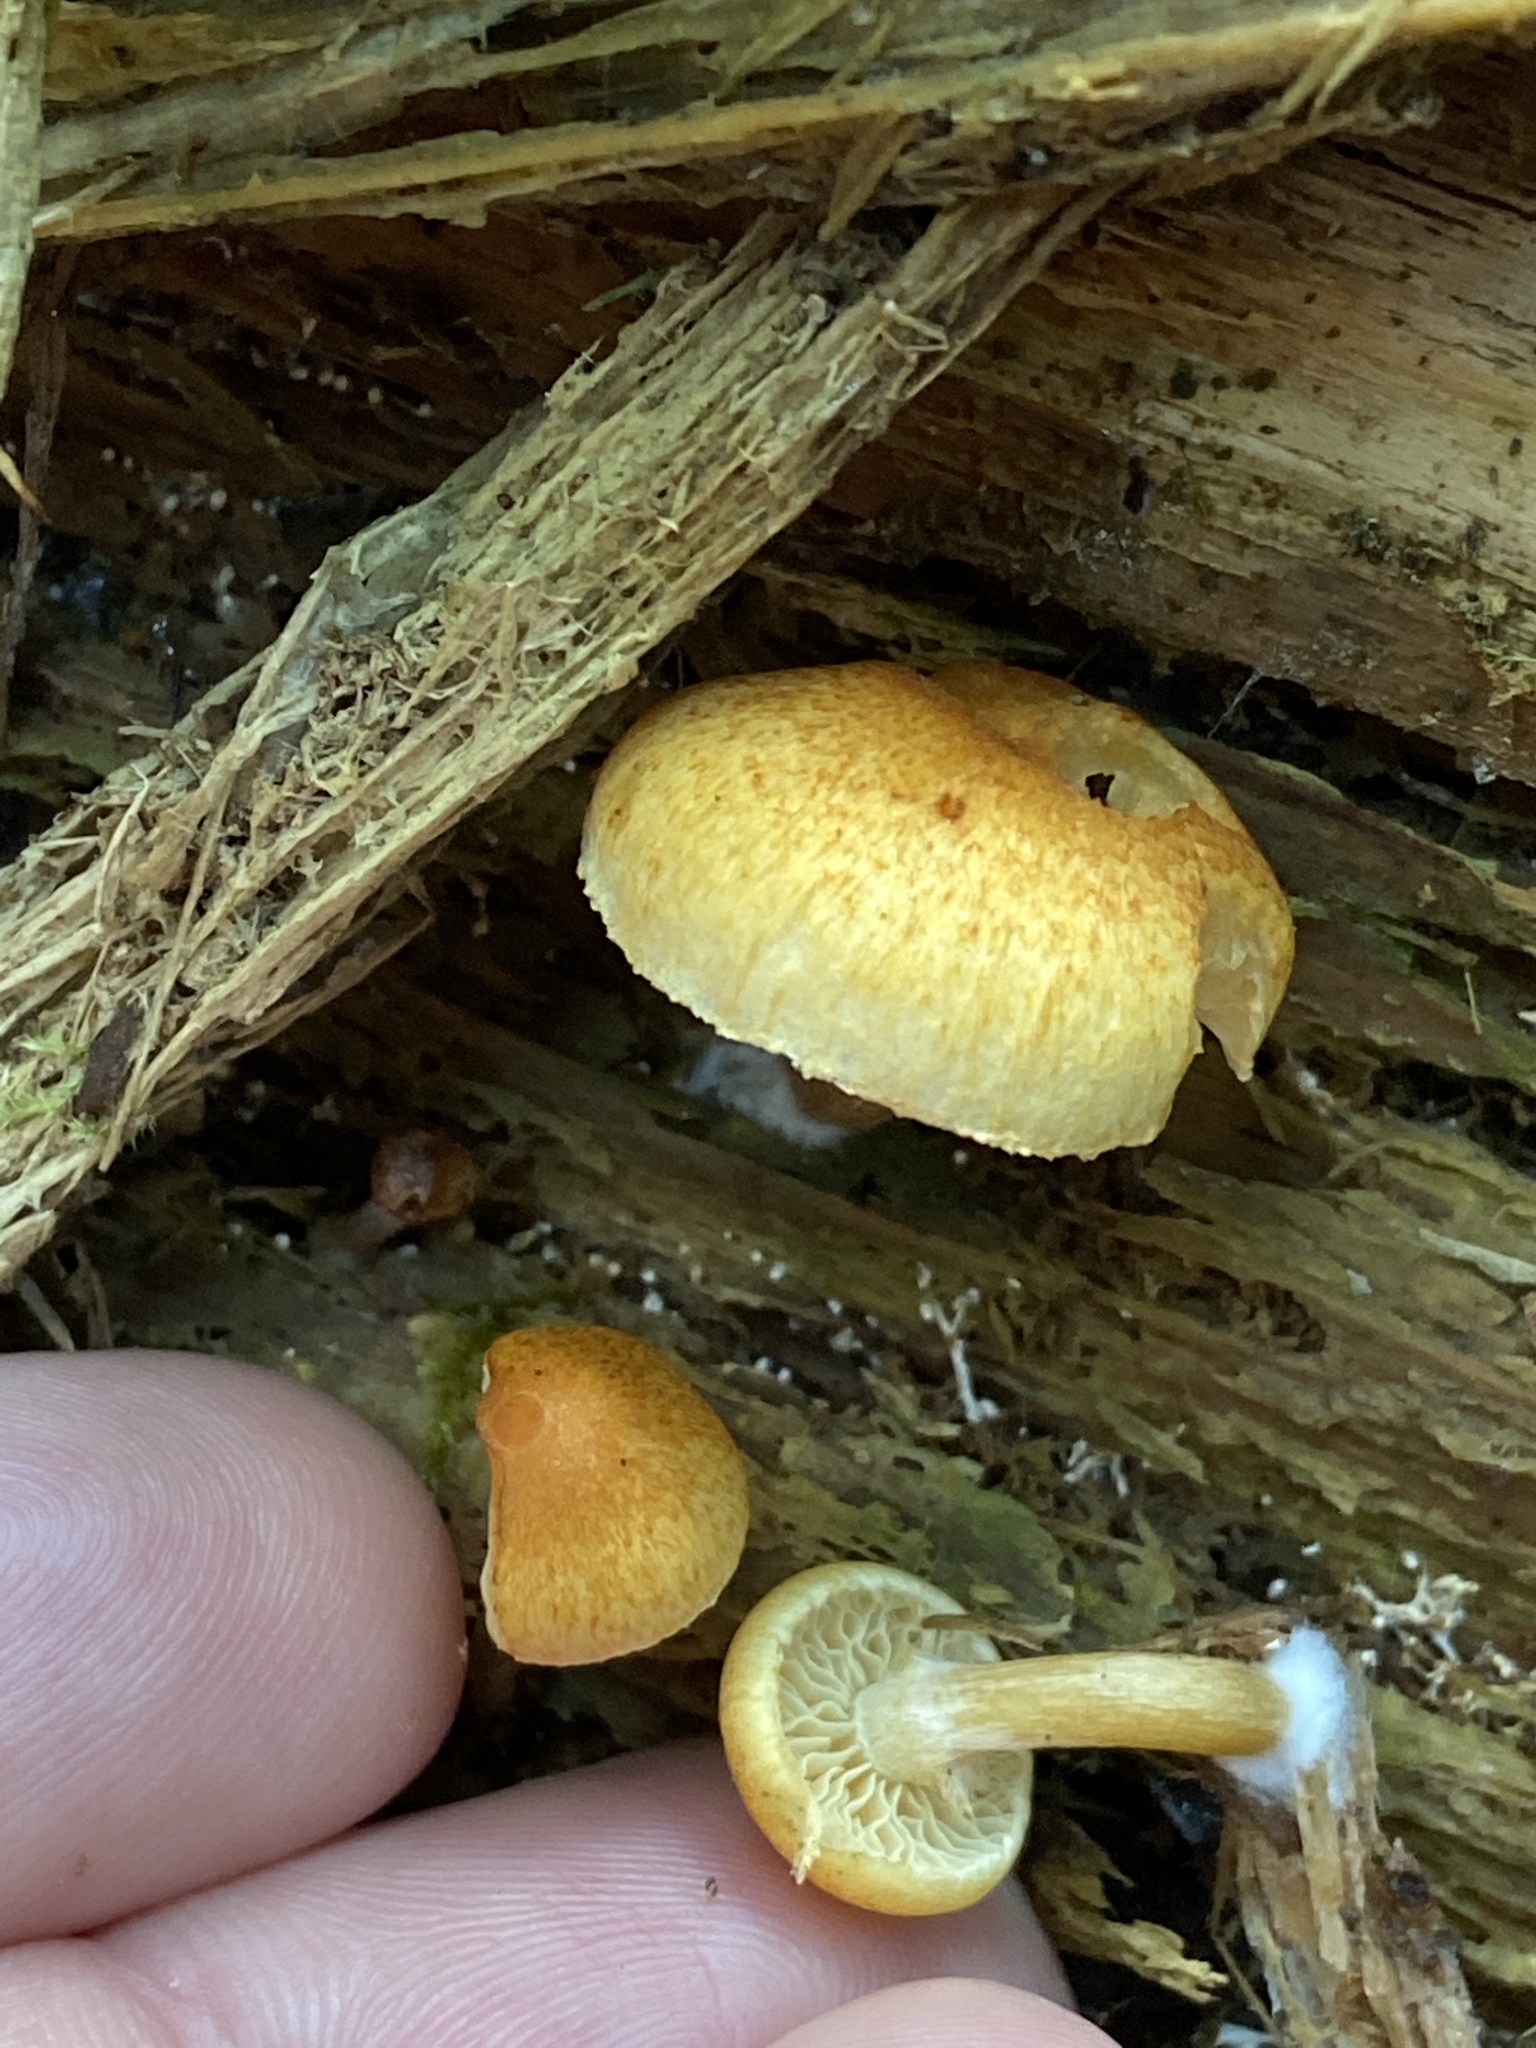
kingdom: Fungi
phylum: Basidiomycota
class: Agaricomycetes
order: Agaricales
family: Hymenogastraceae
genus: Gymnopilus
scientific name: Gymnopilus penetrans
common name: Common rustgill
